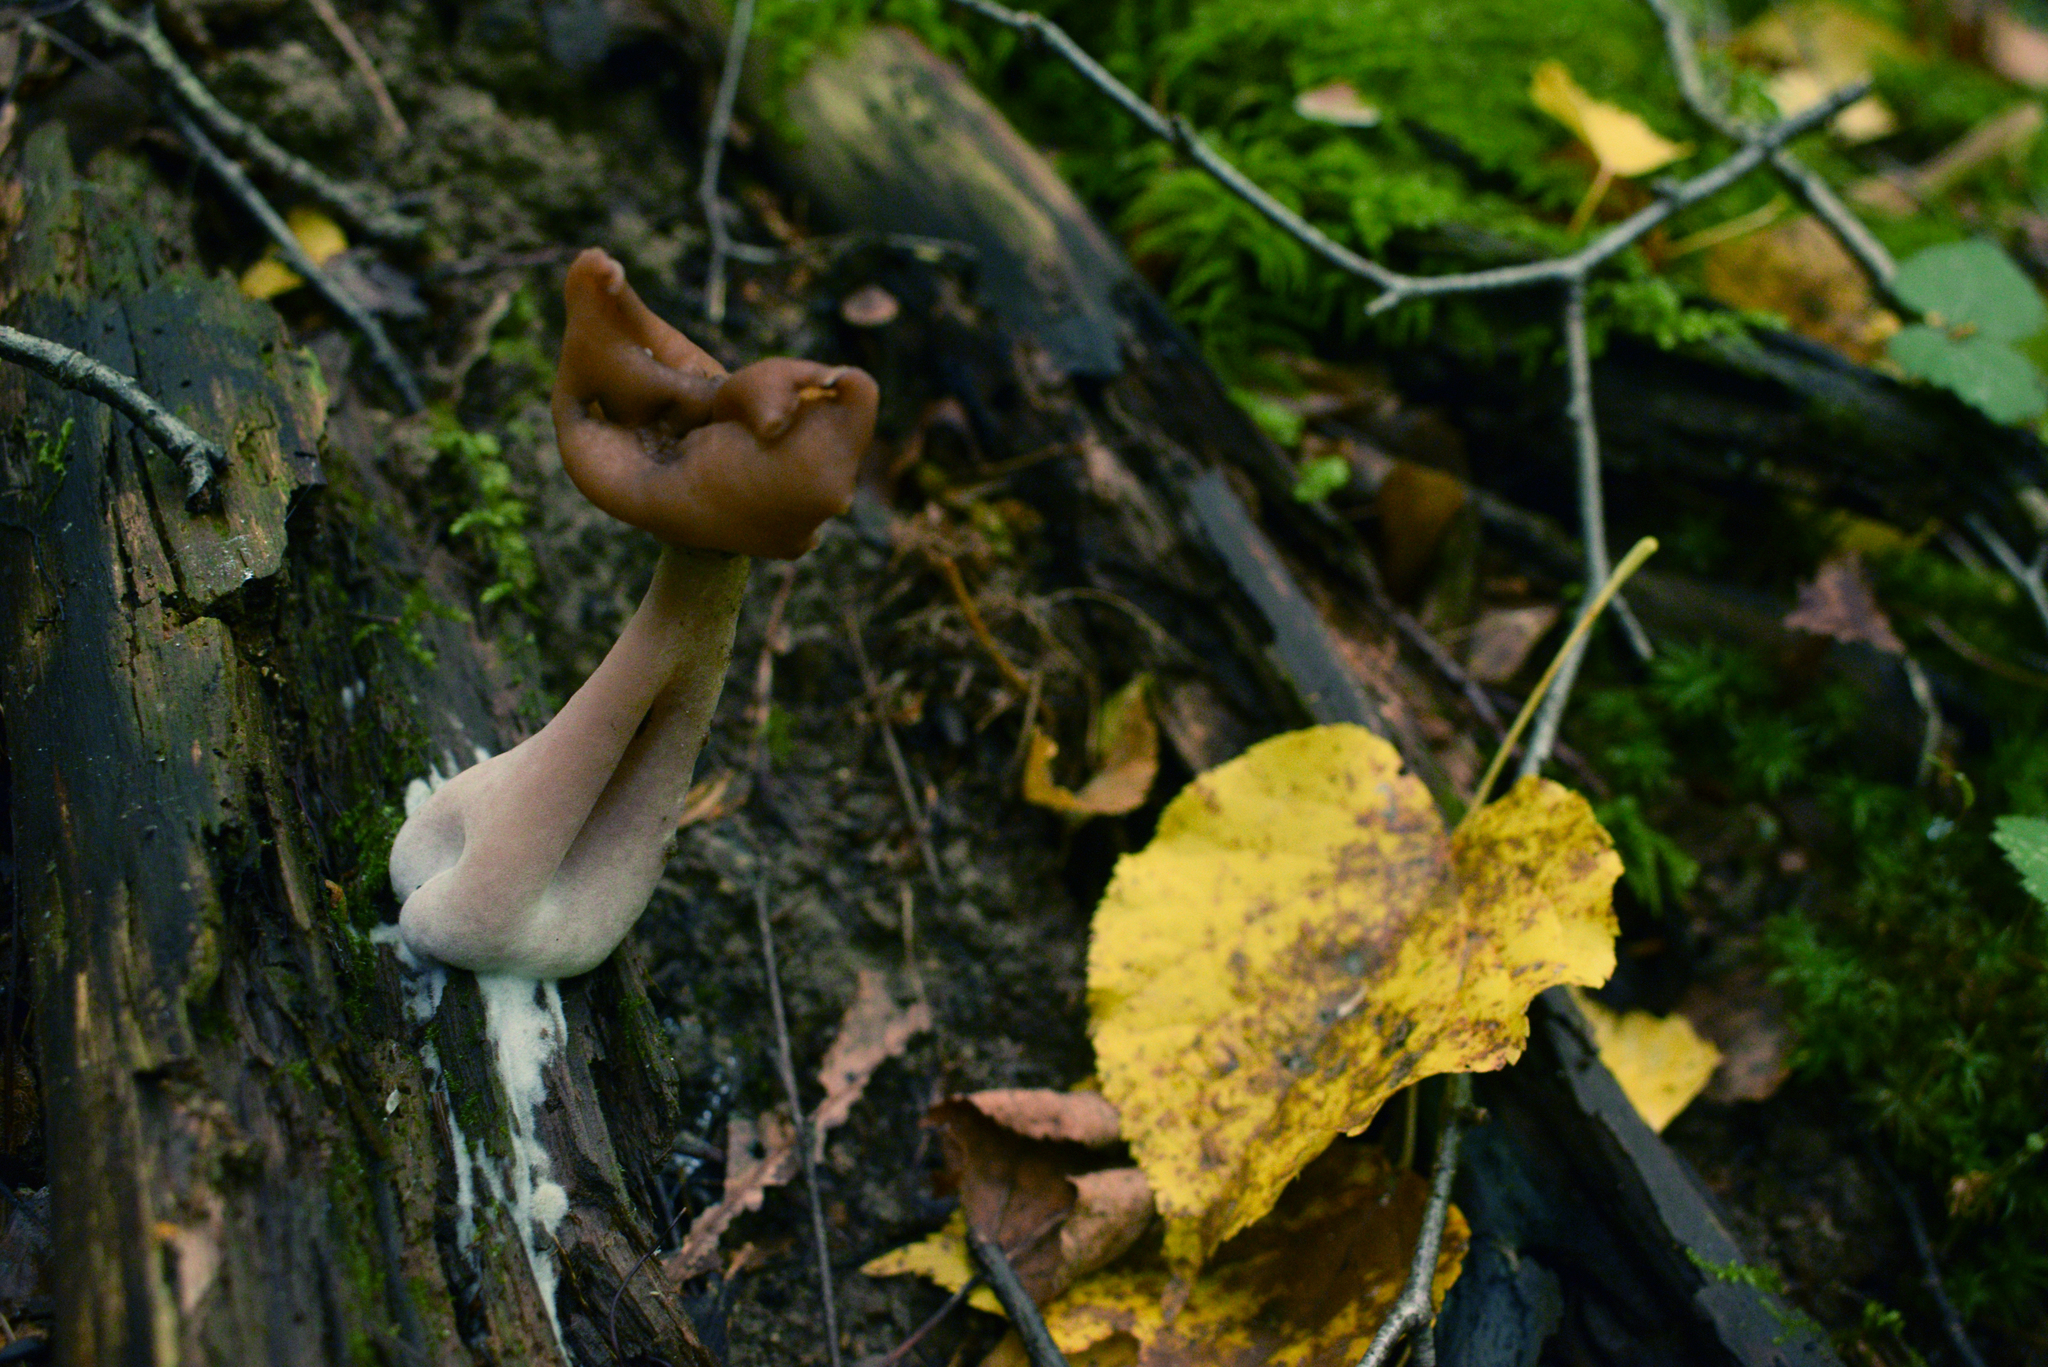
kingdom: Fungi
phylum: Ascomycota
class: Pezizomycetes
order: Pezizales
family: Discinaceae
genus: Gyromitra
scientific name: Gyromitra infula
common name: Pouched false morel
